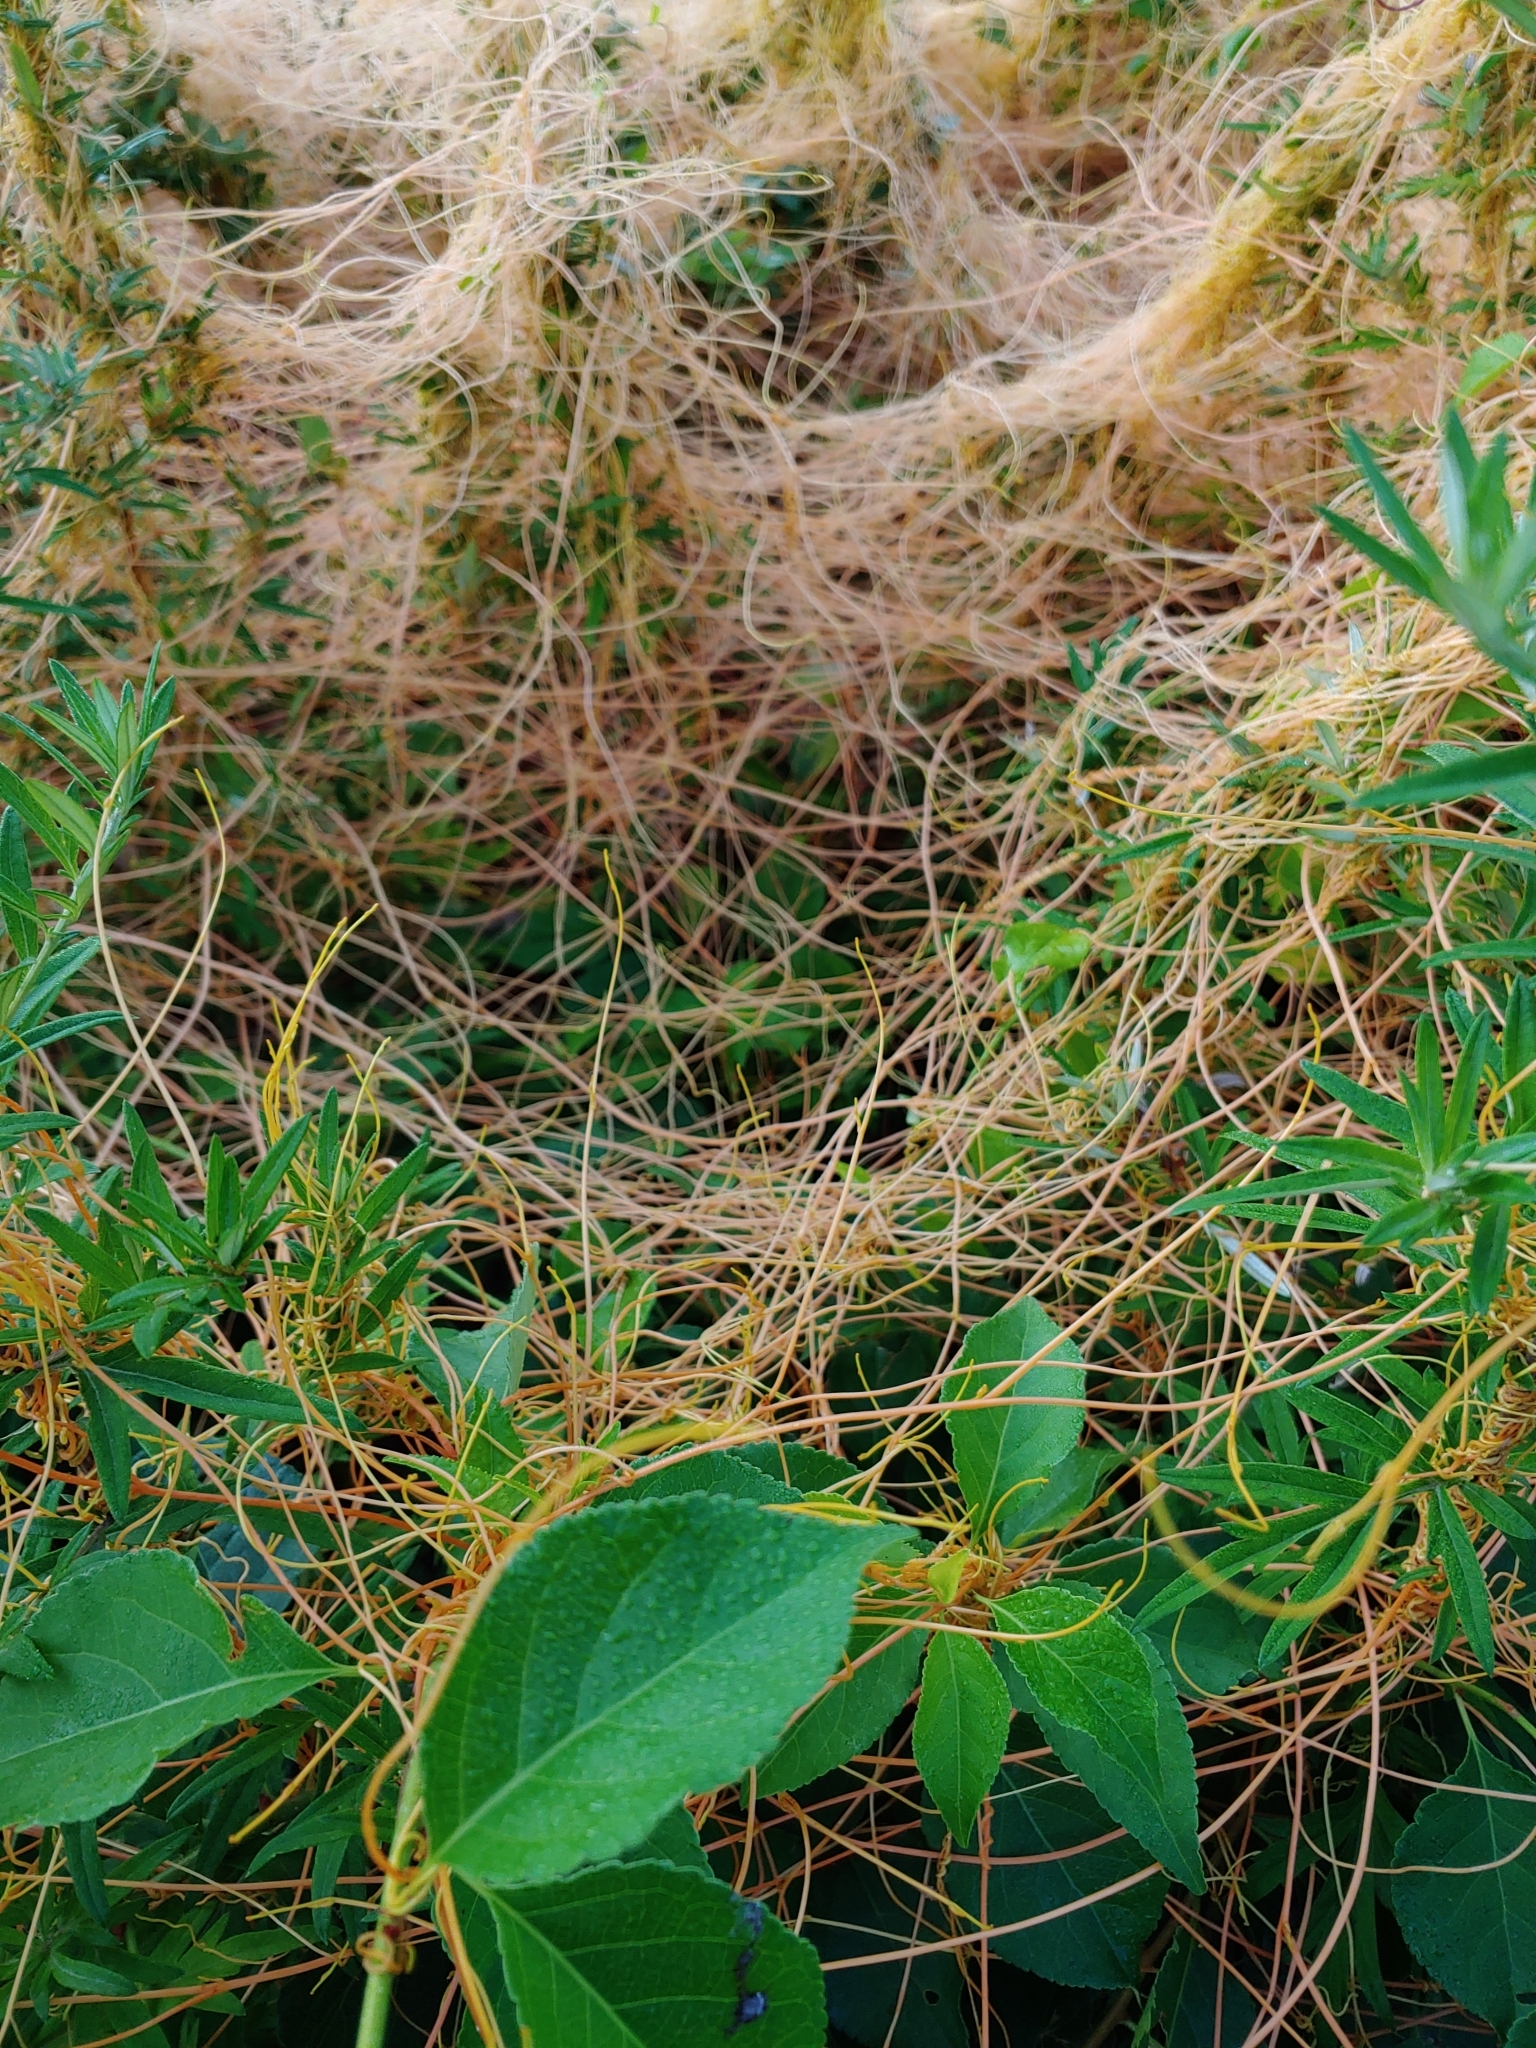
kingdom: Plantae
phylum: Tracheophyta
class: Magnoliopsida
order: Solanales
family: Convolvulaceae
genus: Cuscuta
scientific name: Cuscuta
